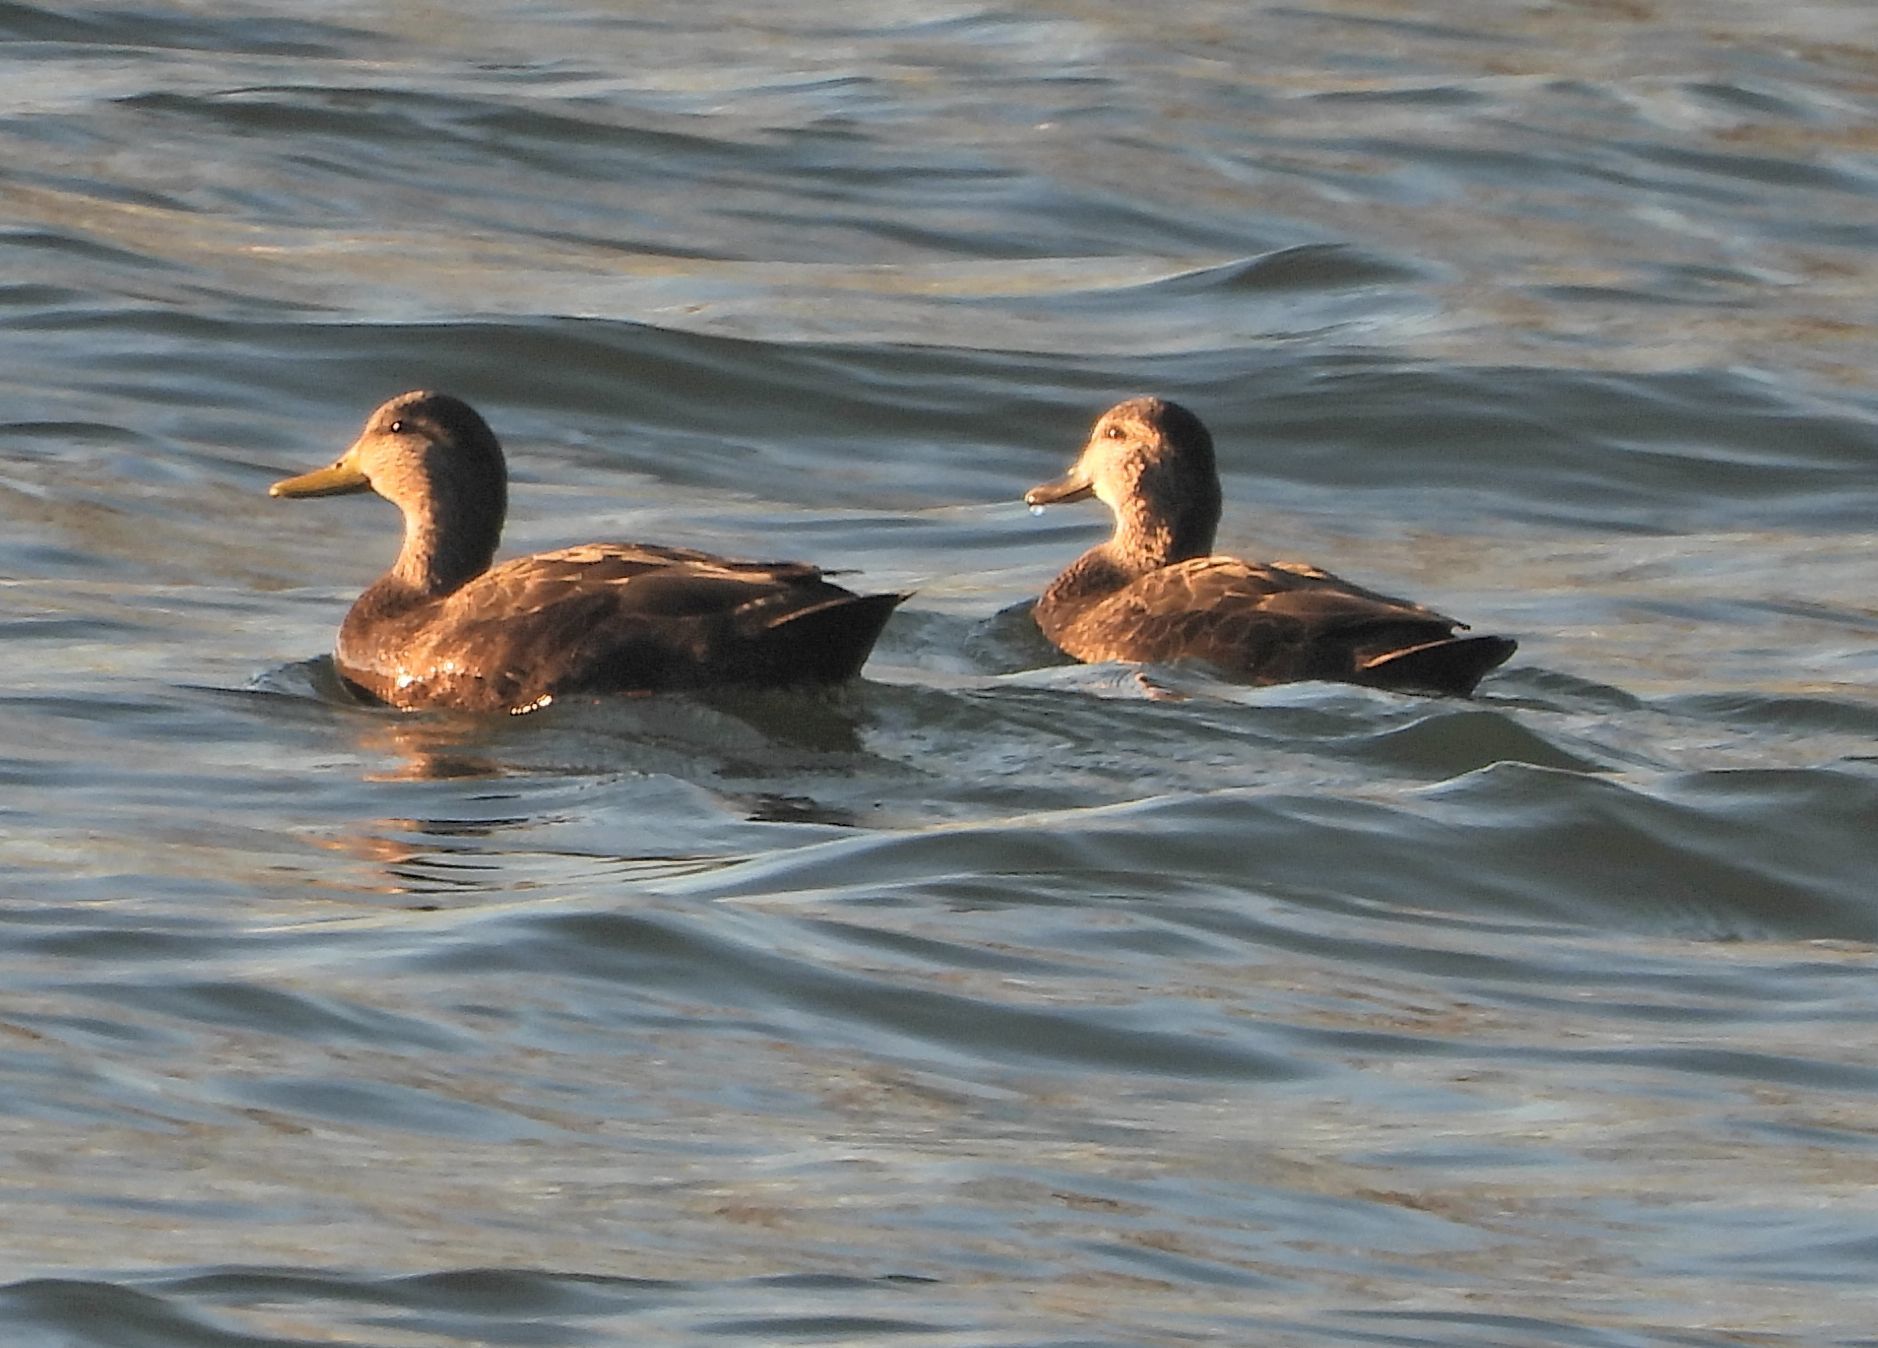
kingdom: Animalia
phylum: Chordata
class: Aves
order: Anseriformes
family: Anatidae
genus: Anas
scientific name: Anas rubripes
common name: American black duck
